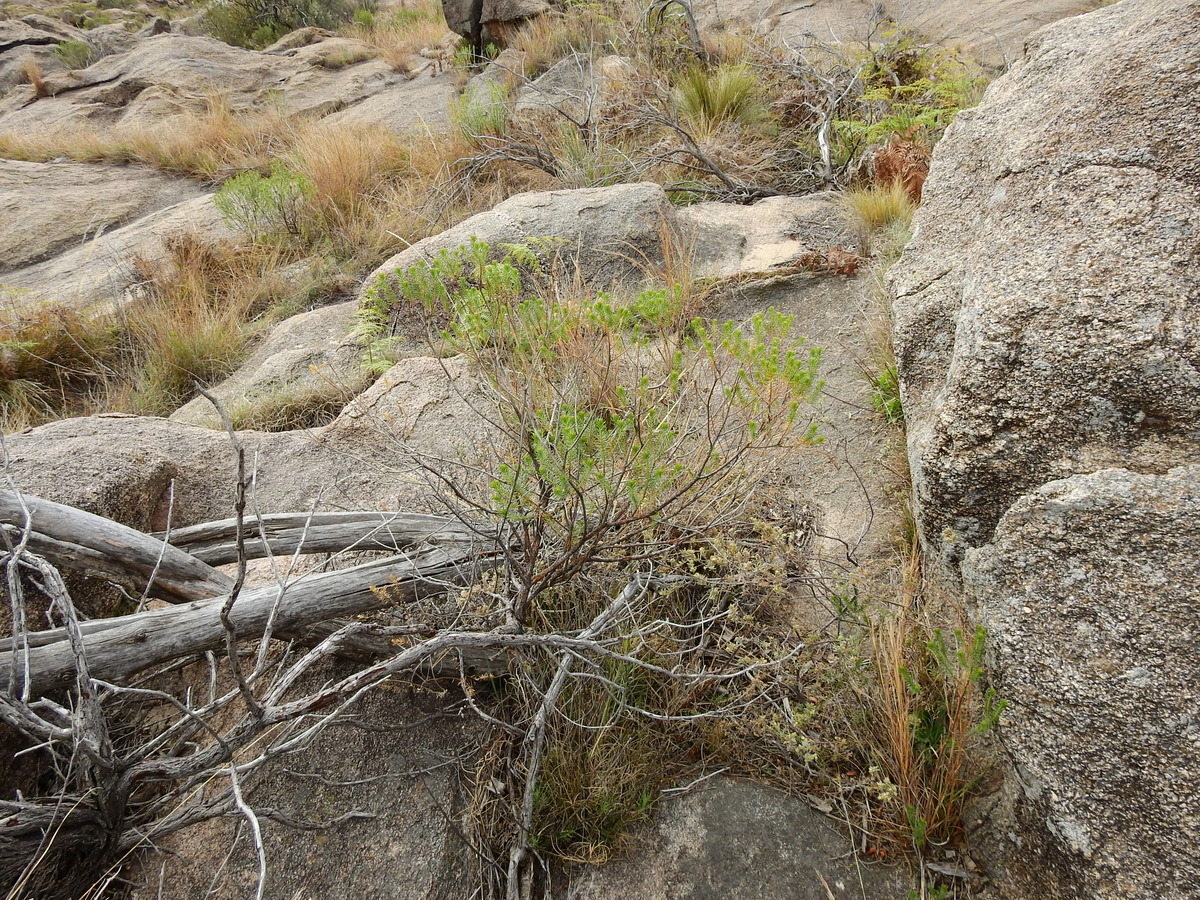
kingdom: Plantae
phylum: Tracheophyta
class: Magnoliopsida
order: Asterales
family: Asteraceae
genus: Baccharis
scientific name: Baccharis aliena
